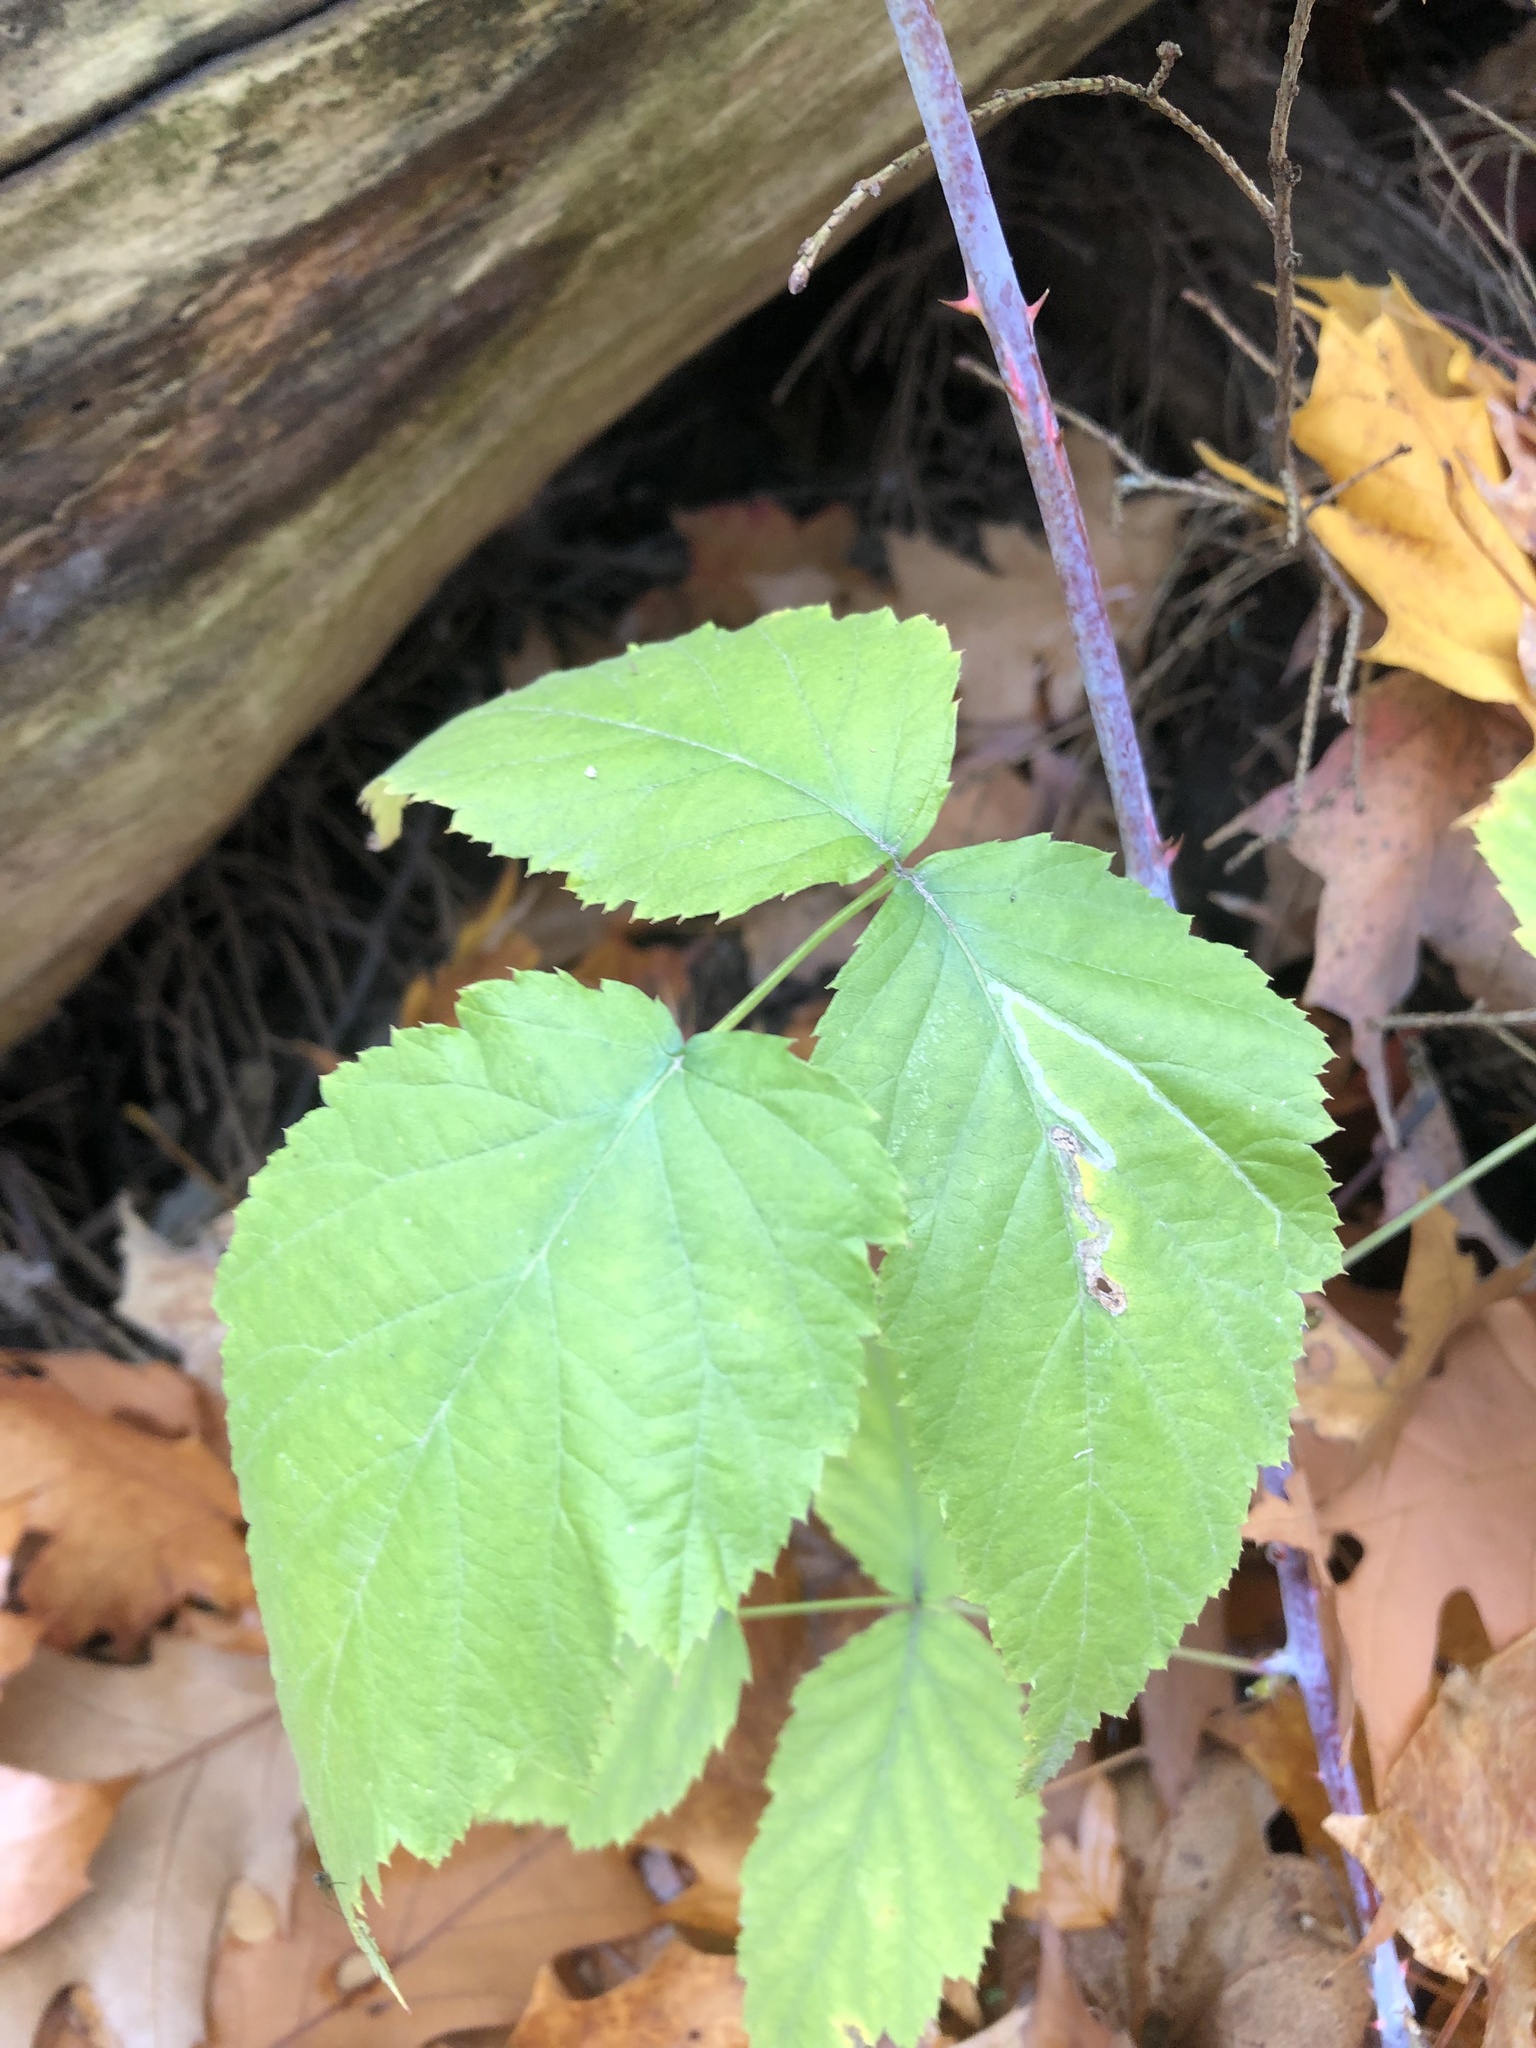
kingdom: Plantae
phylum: Tracheophyta
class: Magnoliopsida
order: Rosales
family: Rosaceae
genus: Rubus
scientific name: Rubus occidentalis
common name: Black raspberry
